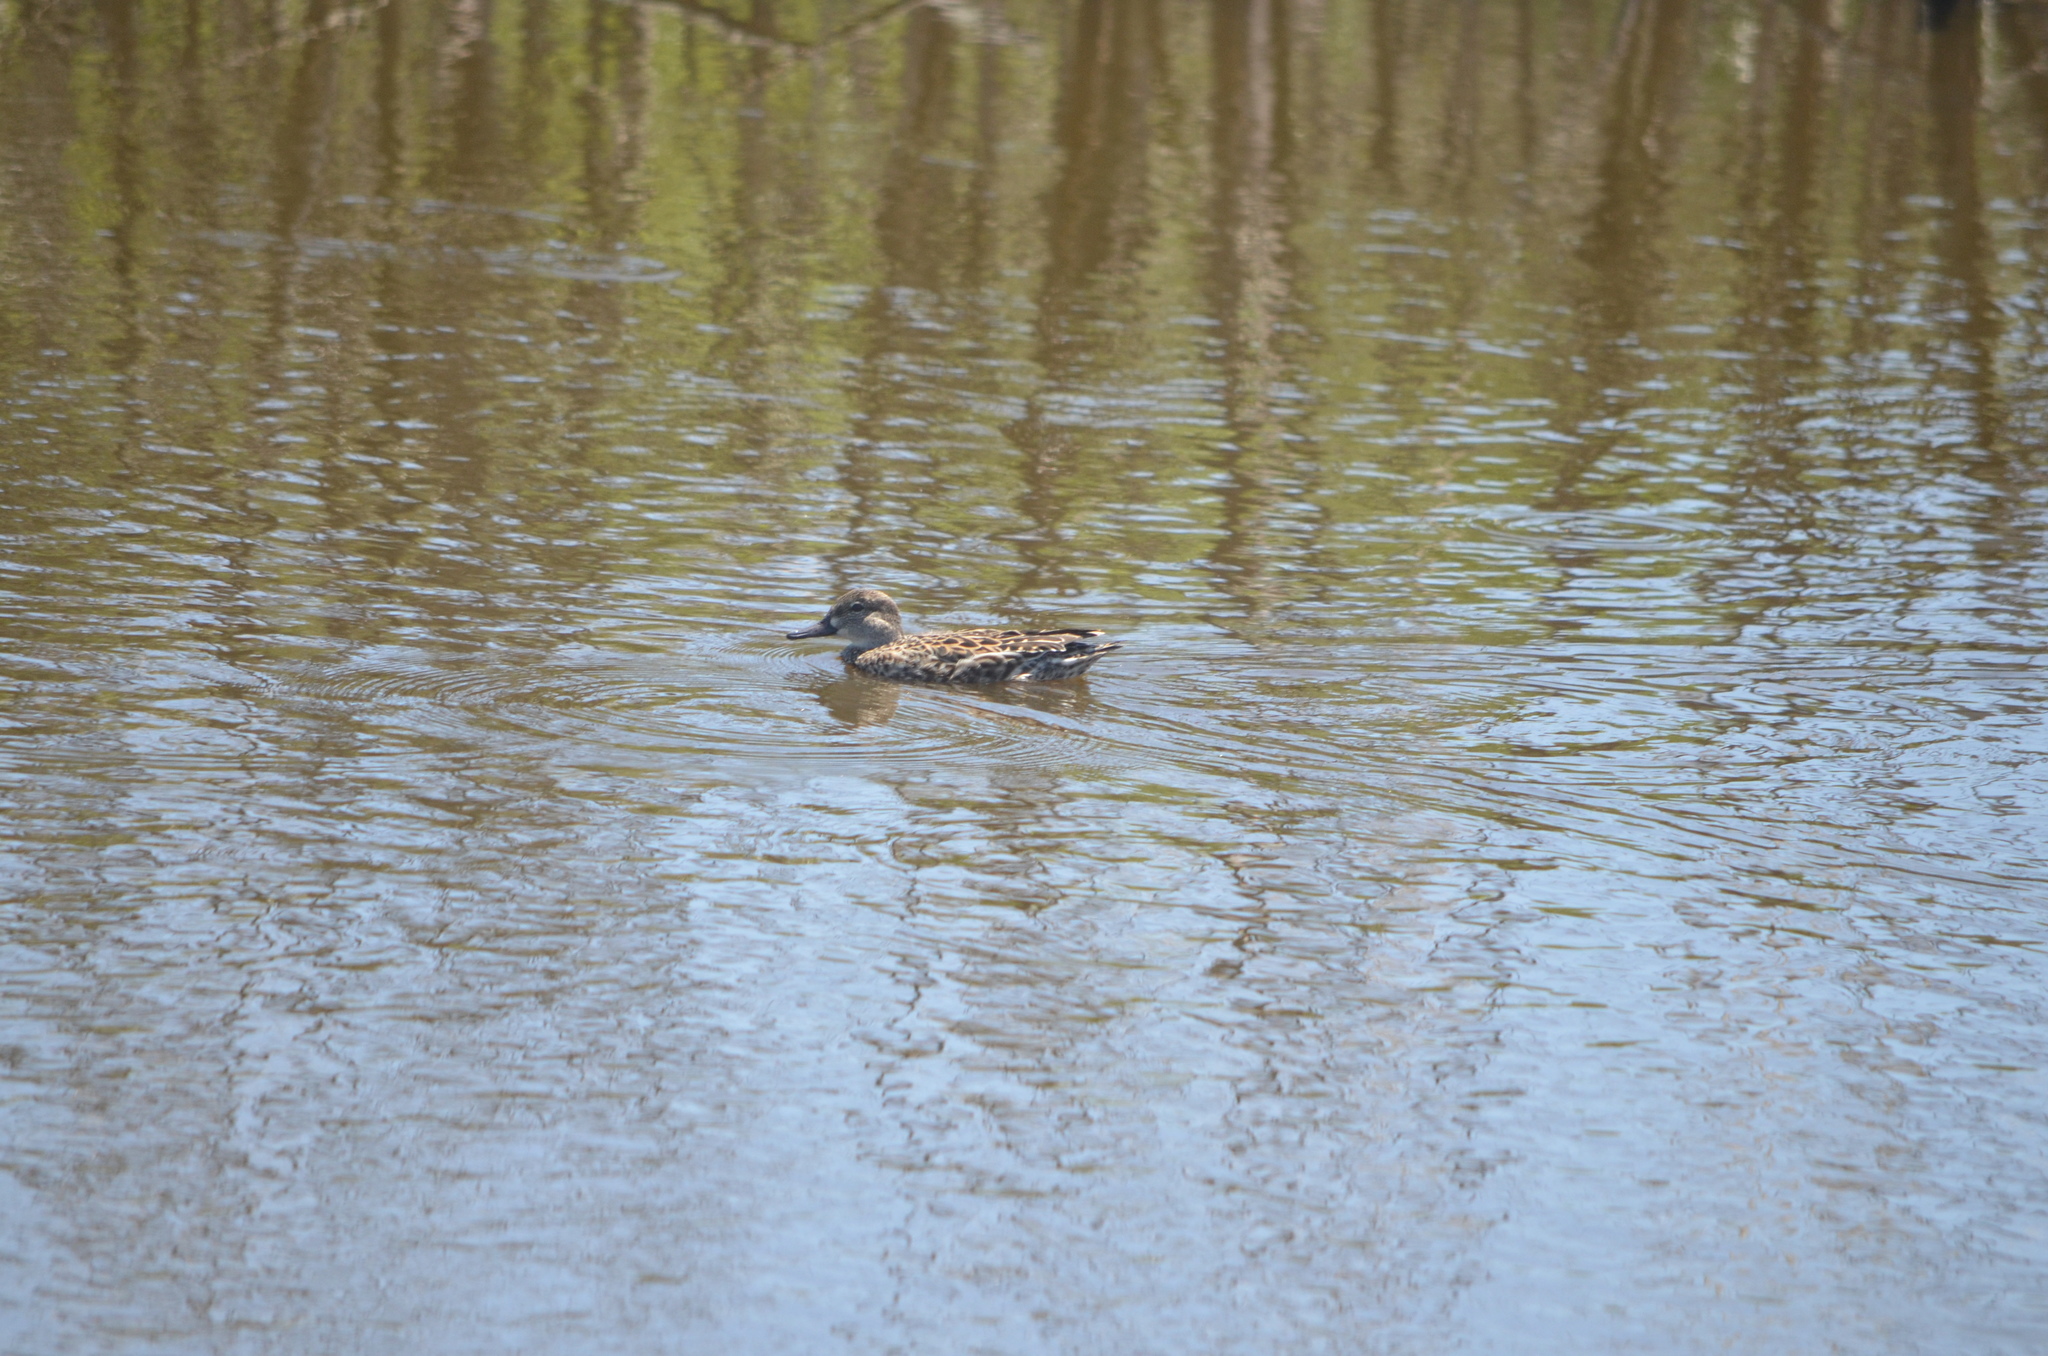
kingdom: Animalia
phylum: Chordata
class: Aves
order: Anseriformes
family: Anatidae
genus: Spatula
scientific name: Spatula discors
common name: Blue-winged teal
